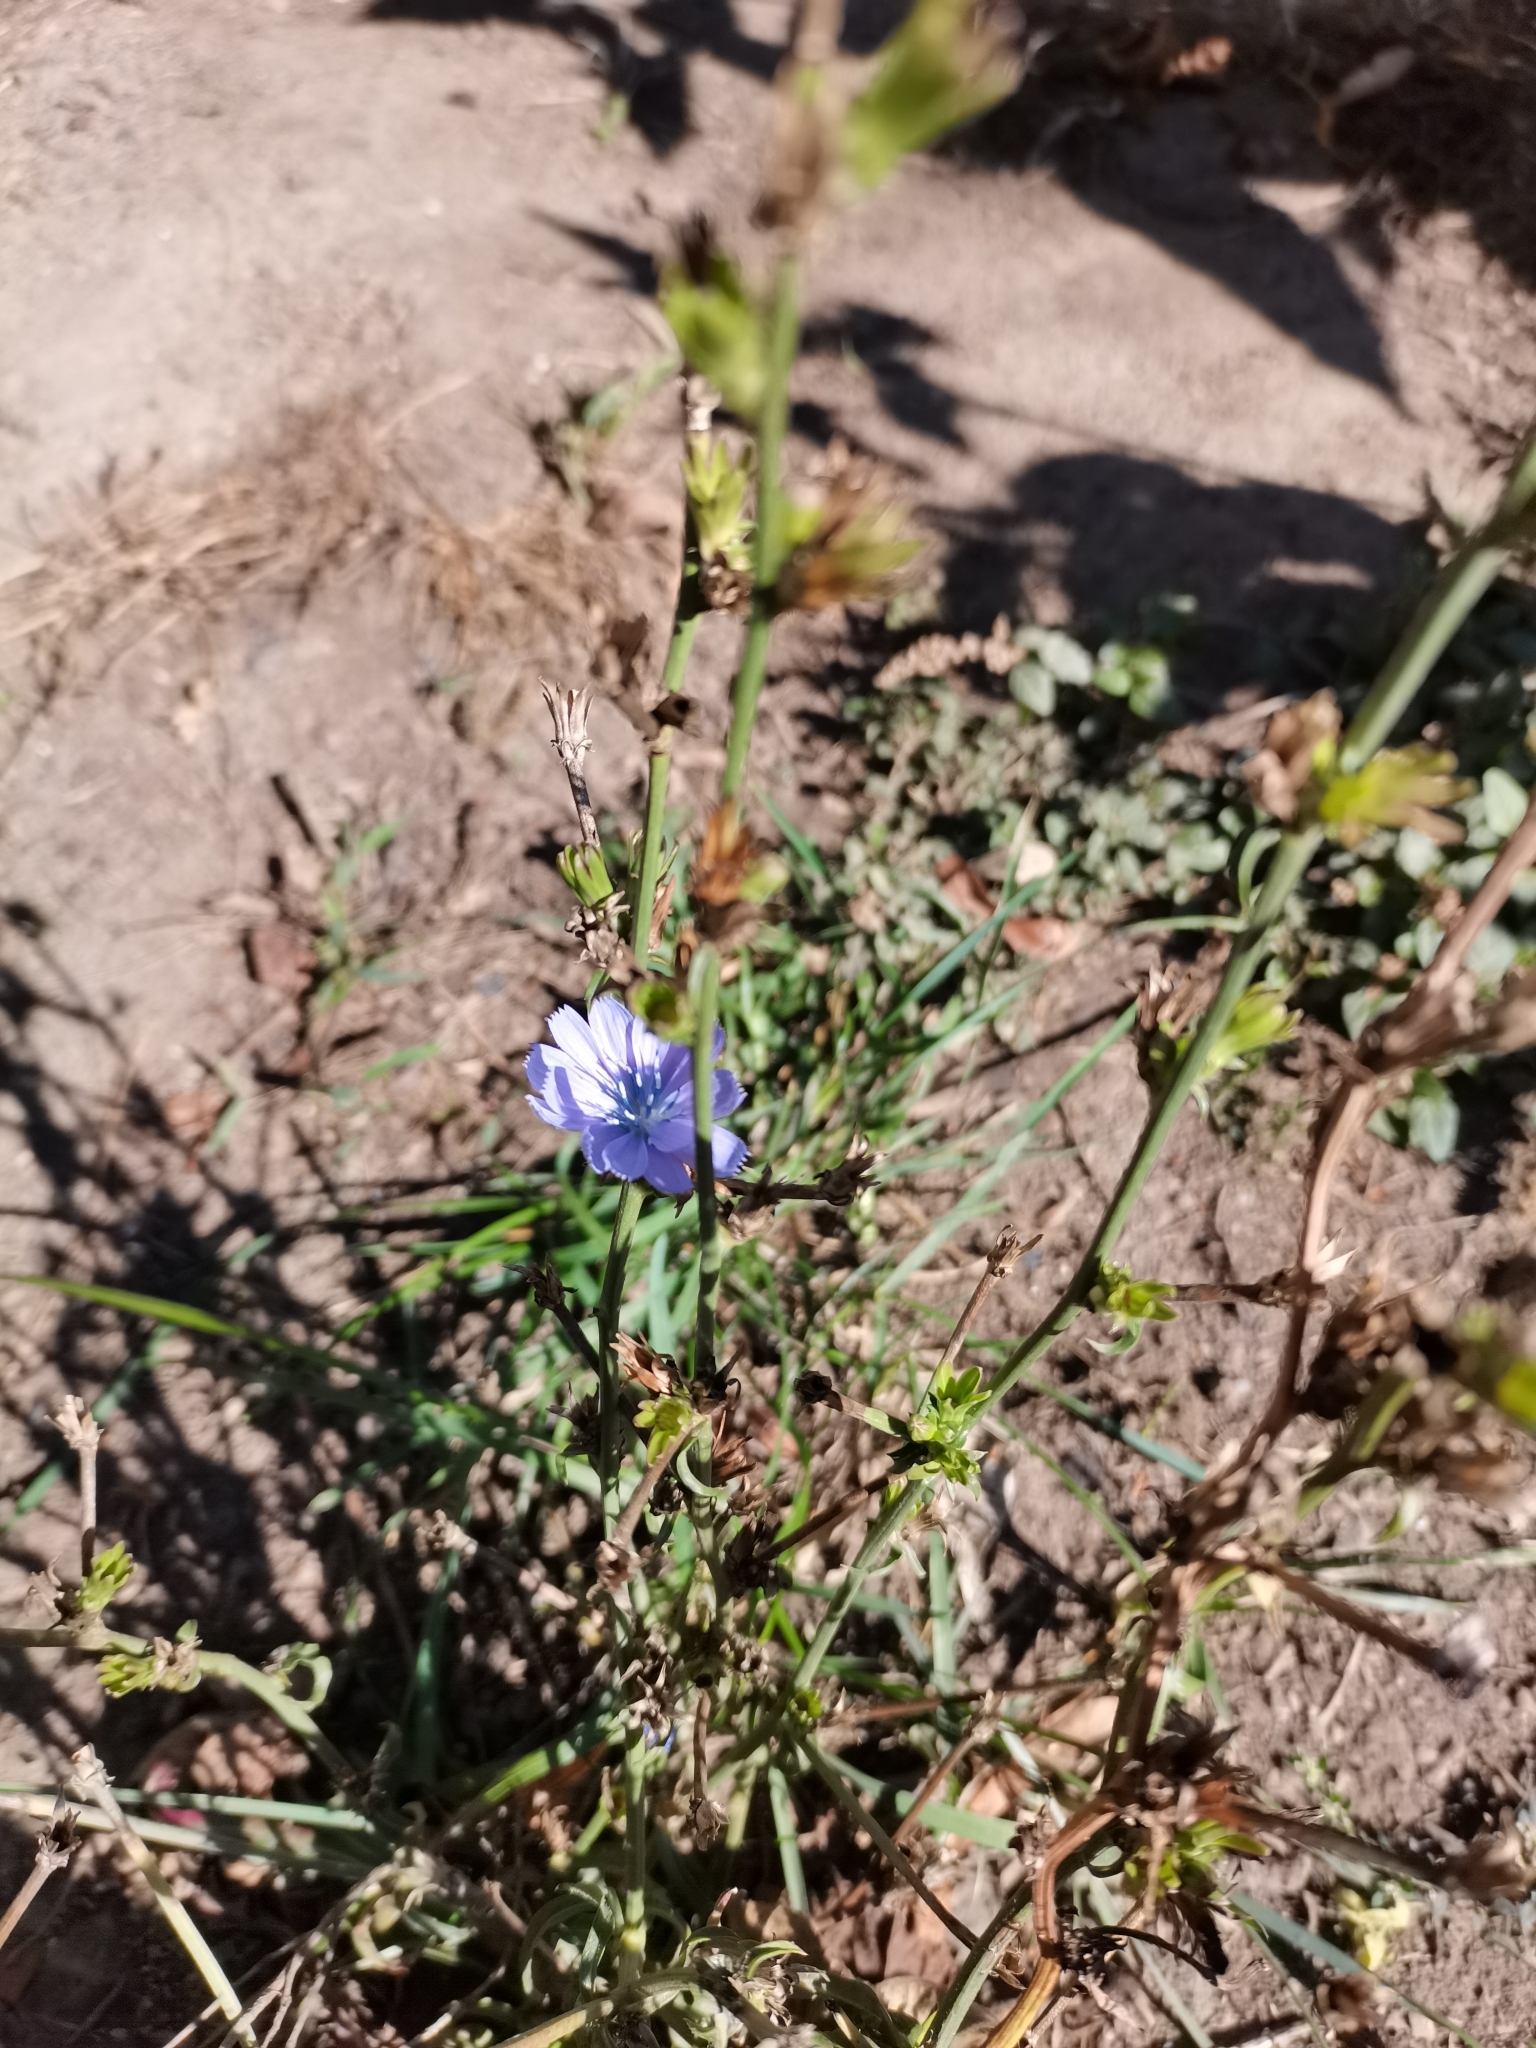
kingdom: Plantae
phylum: Tracheophyta
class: Magnoliopsida
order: Asterales
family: Asteraceae
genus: Cichorium
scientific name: Cichorium intybus
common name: Chicory
